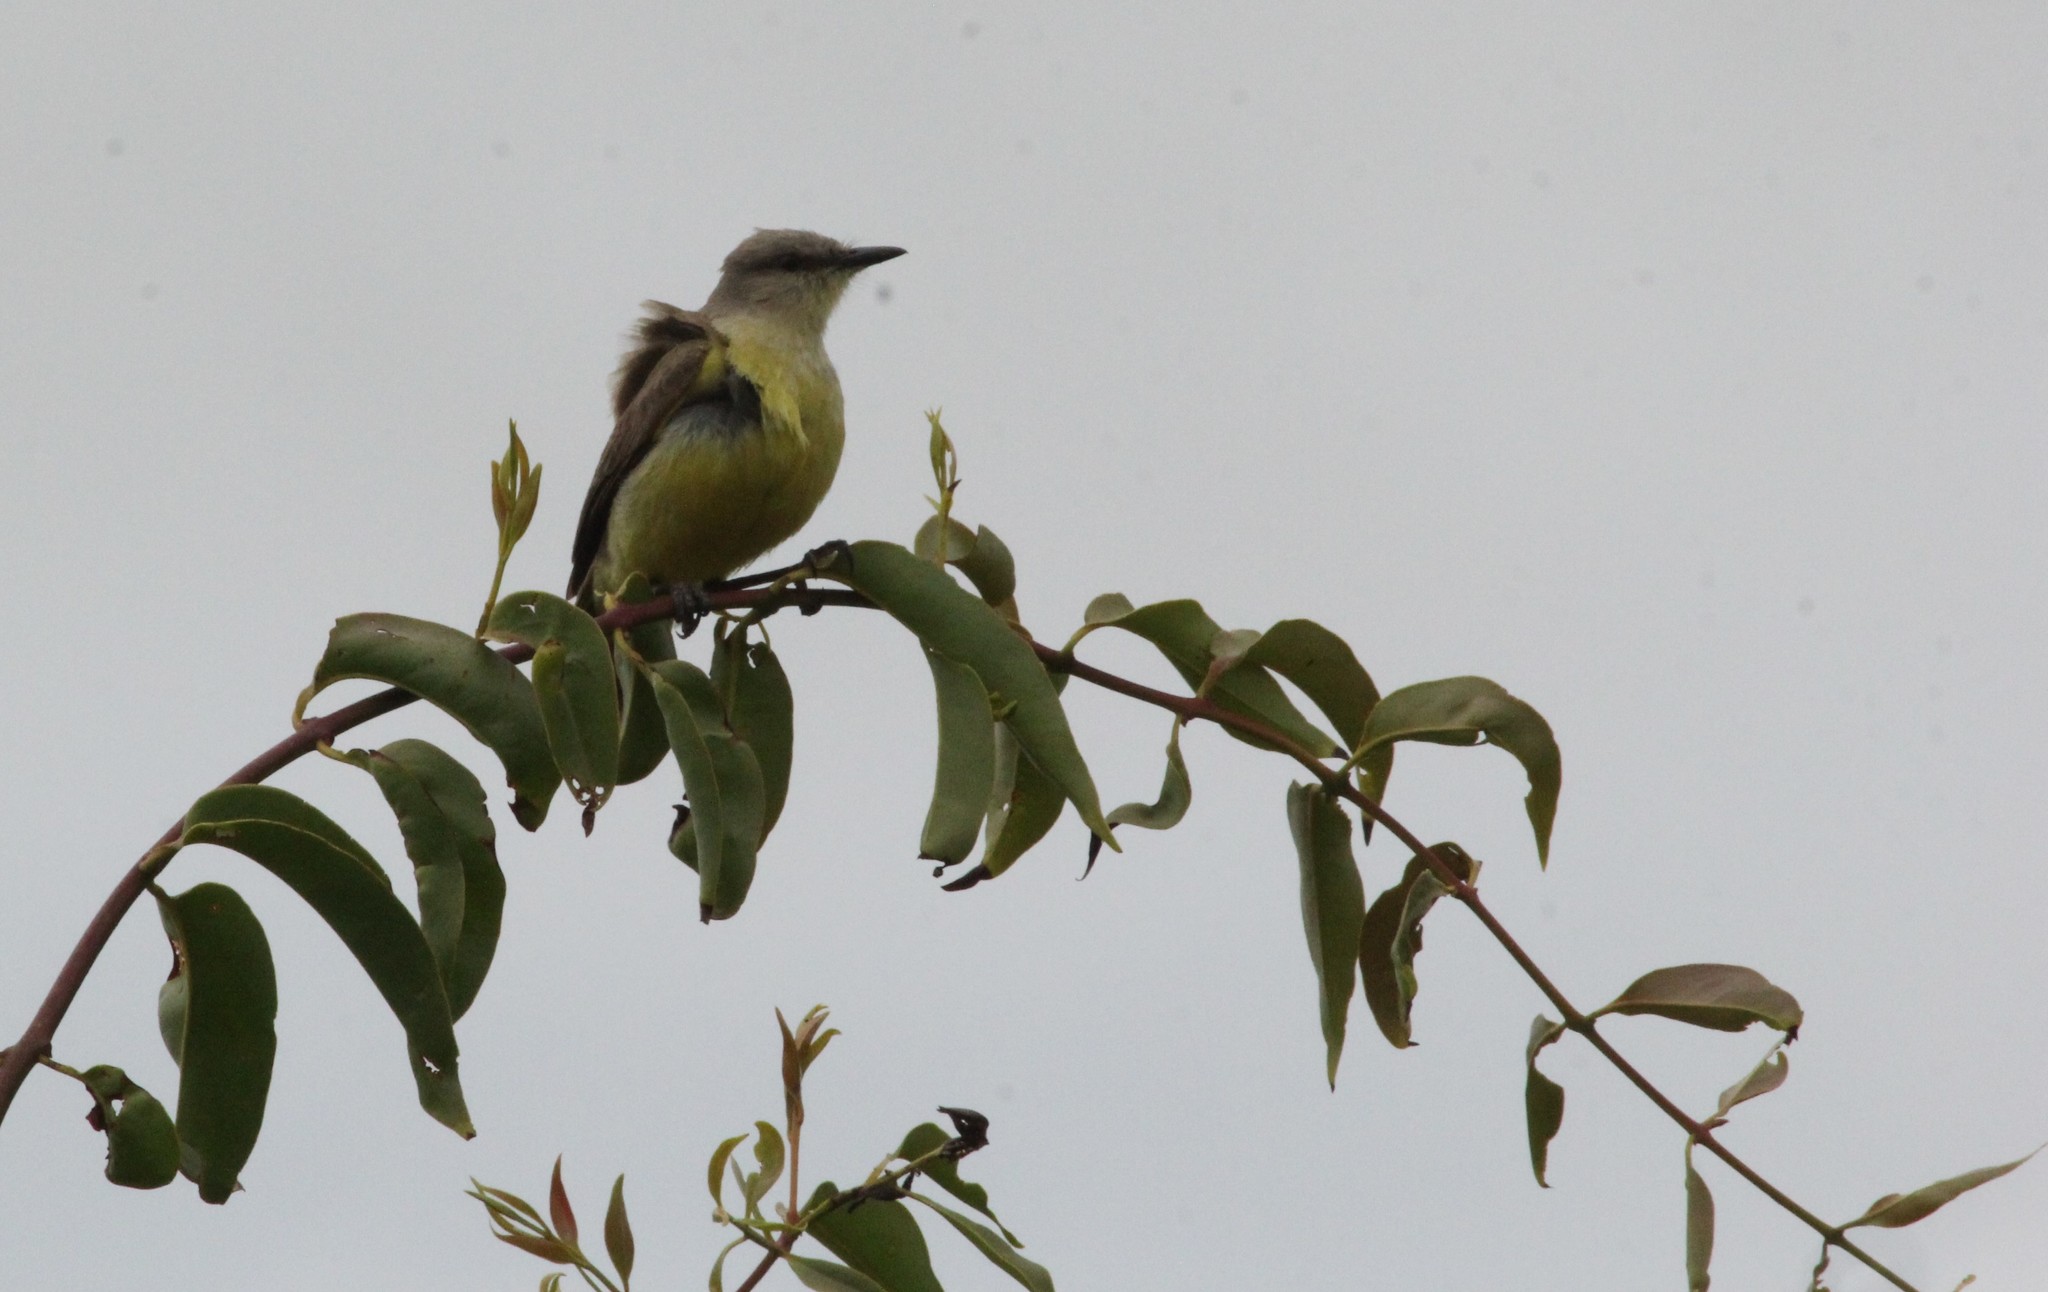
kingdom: Animalia
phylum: Chordata
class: Aves
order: Passeriformes
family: Tyrannidae
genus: Machetornis
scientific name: Machetornis rixosa
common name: Cattle tyrant
